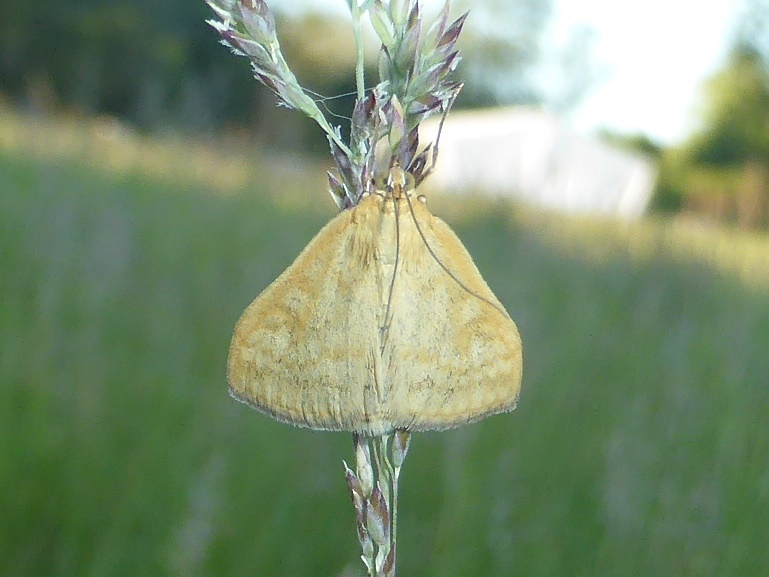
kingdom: Animalia
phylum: Arthropoda
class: Insecta
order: Lepidoptera
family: Crambidae
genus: Sitochroa
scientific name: Sitochroa verticalis
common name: Lesser pearl
